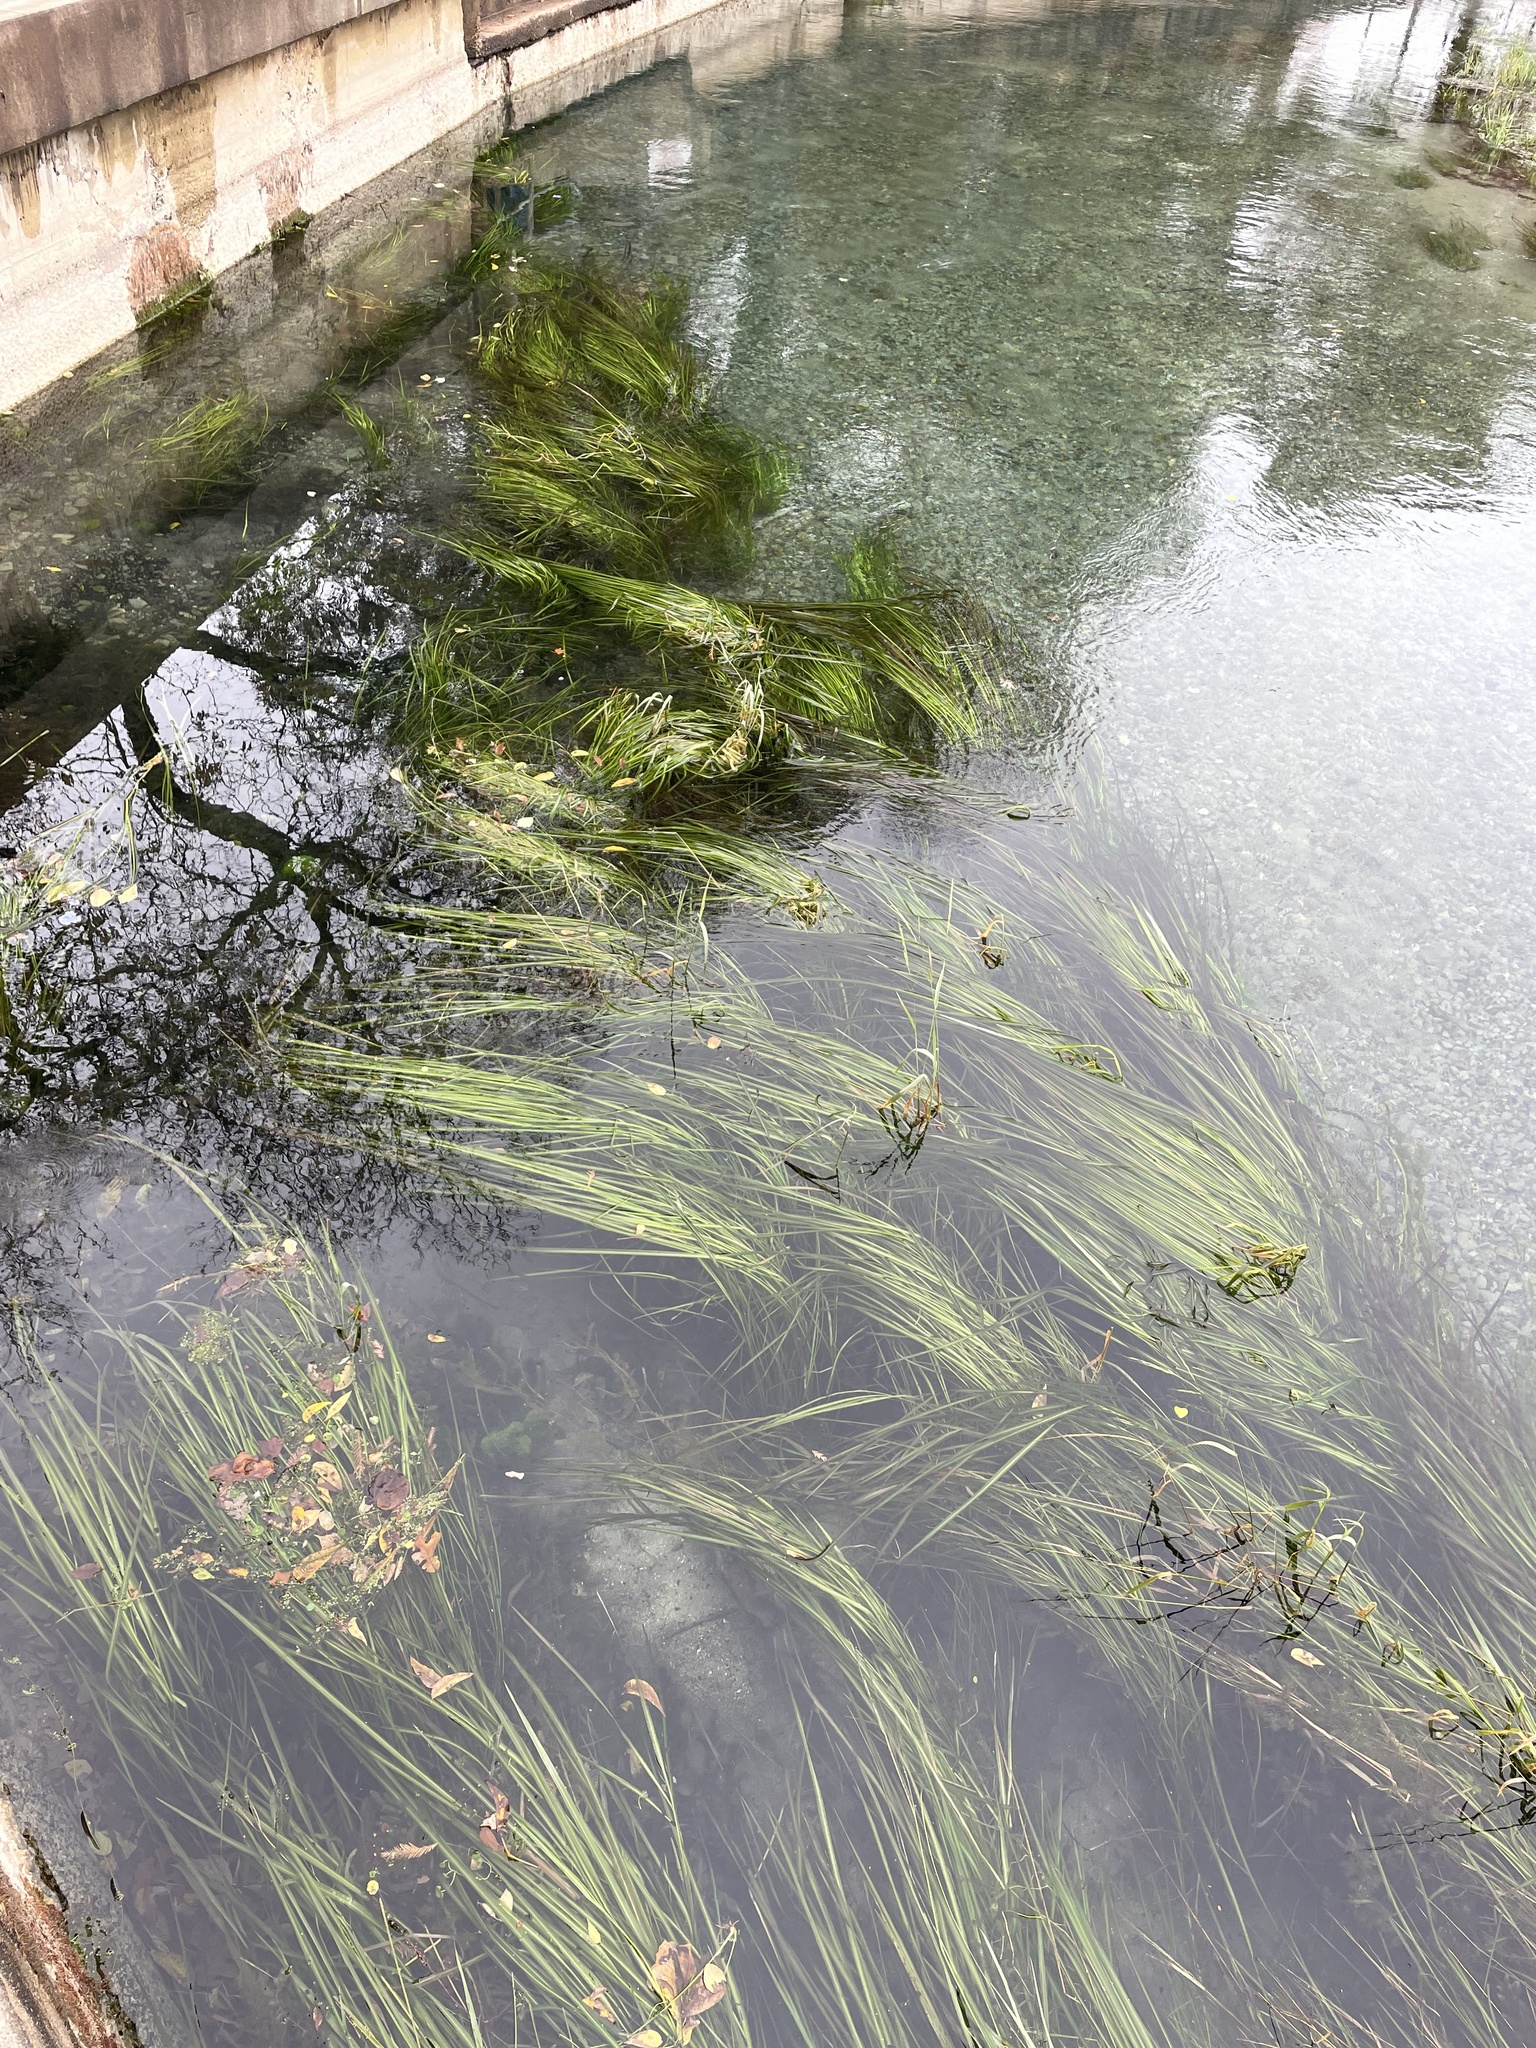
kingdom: Plantae
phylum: Tracheophyta
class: Liliopsida
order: Poales
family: Poaceae
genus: Zizania
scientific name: Zizania texana
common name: Texas wild rice
